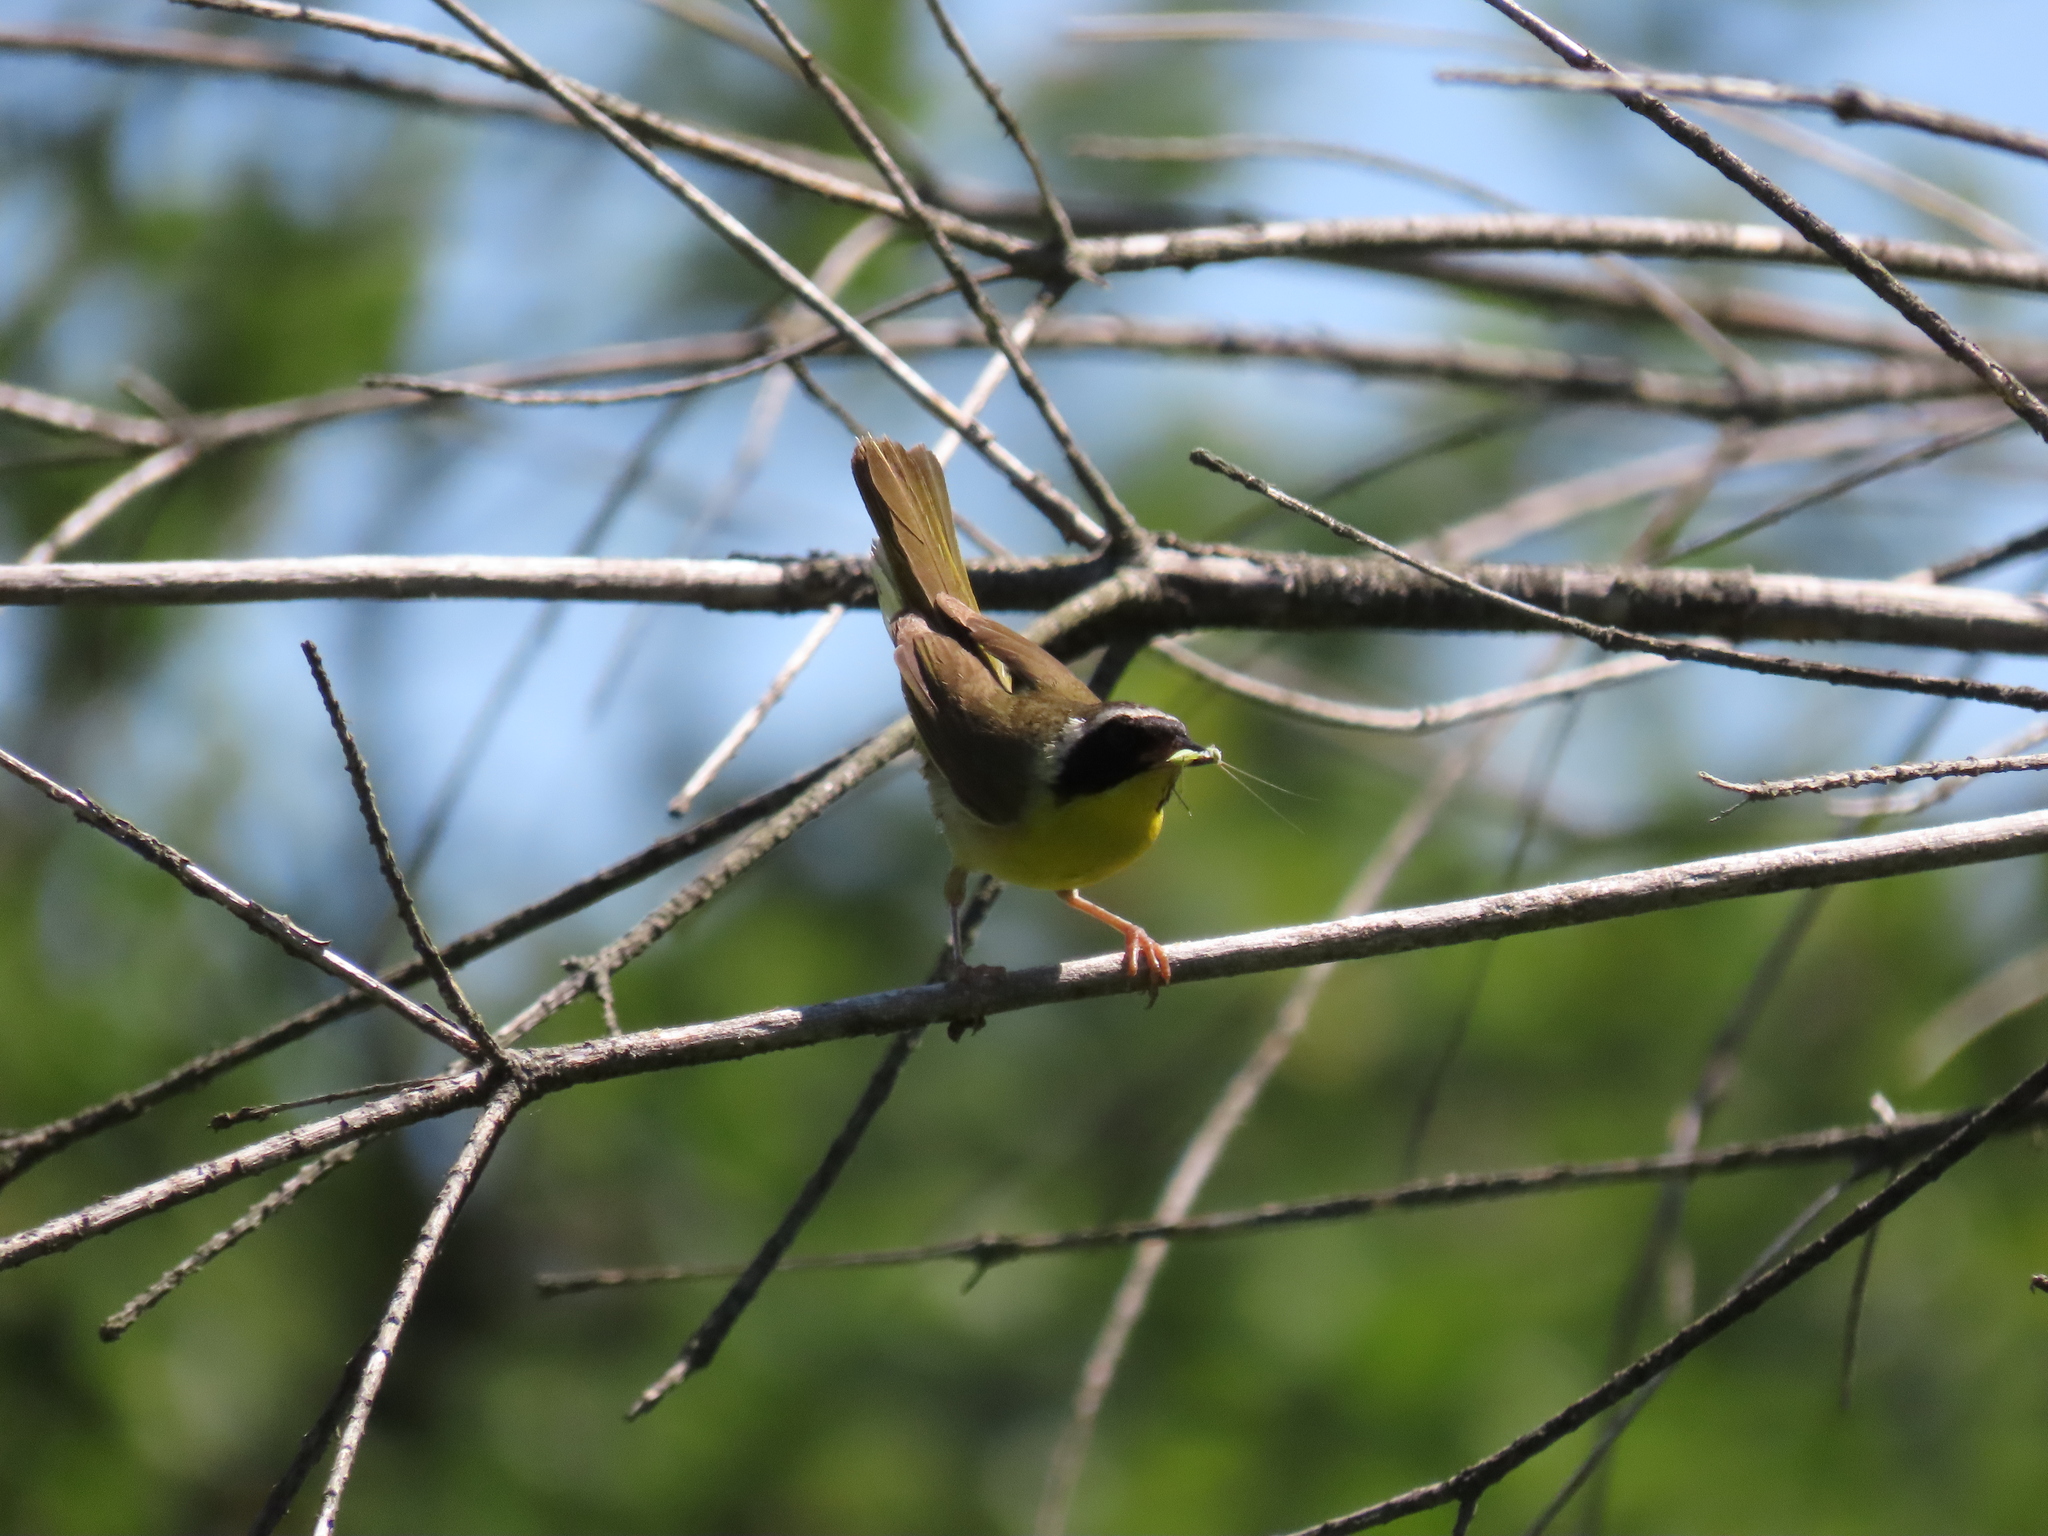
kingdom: Animalia
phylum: Chordata
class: Aves
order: Passeriformes
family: Parulidae
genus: Geothlypis
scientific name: Geothlypis trichas
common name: Common yellowthroat
